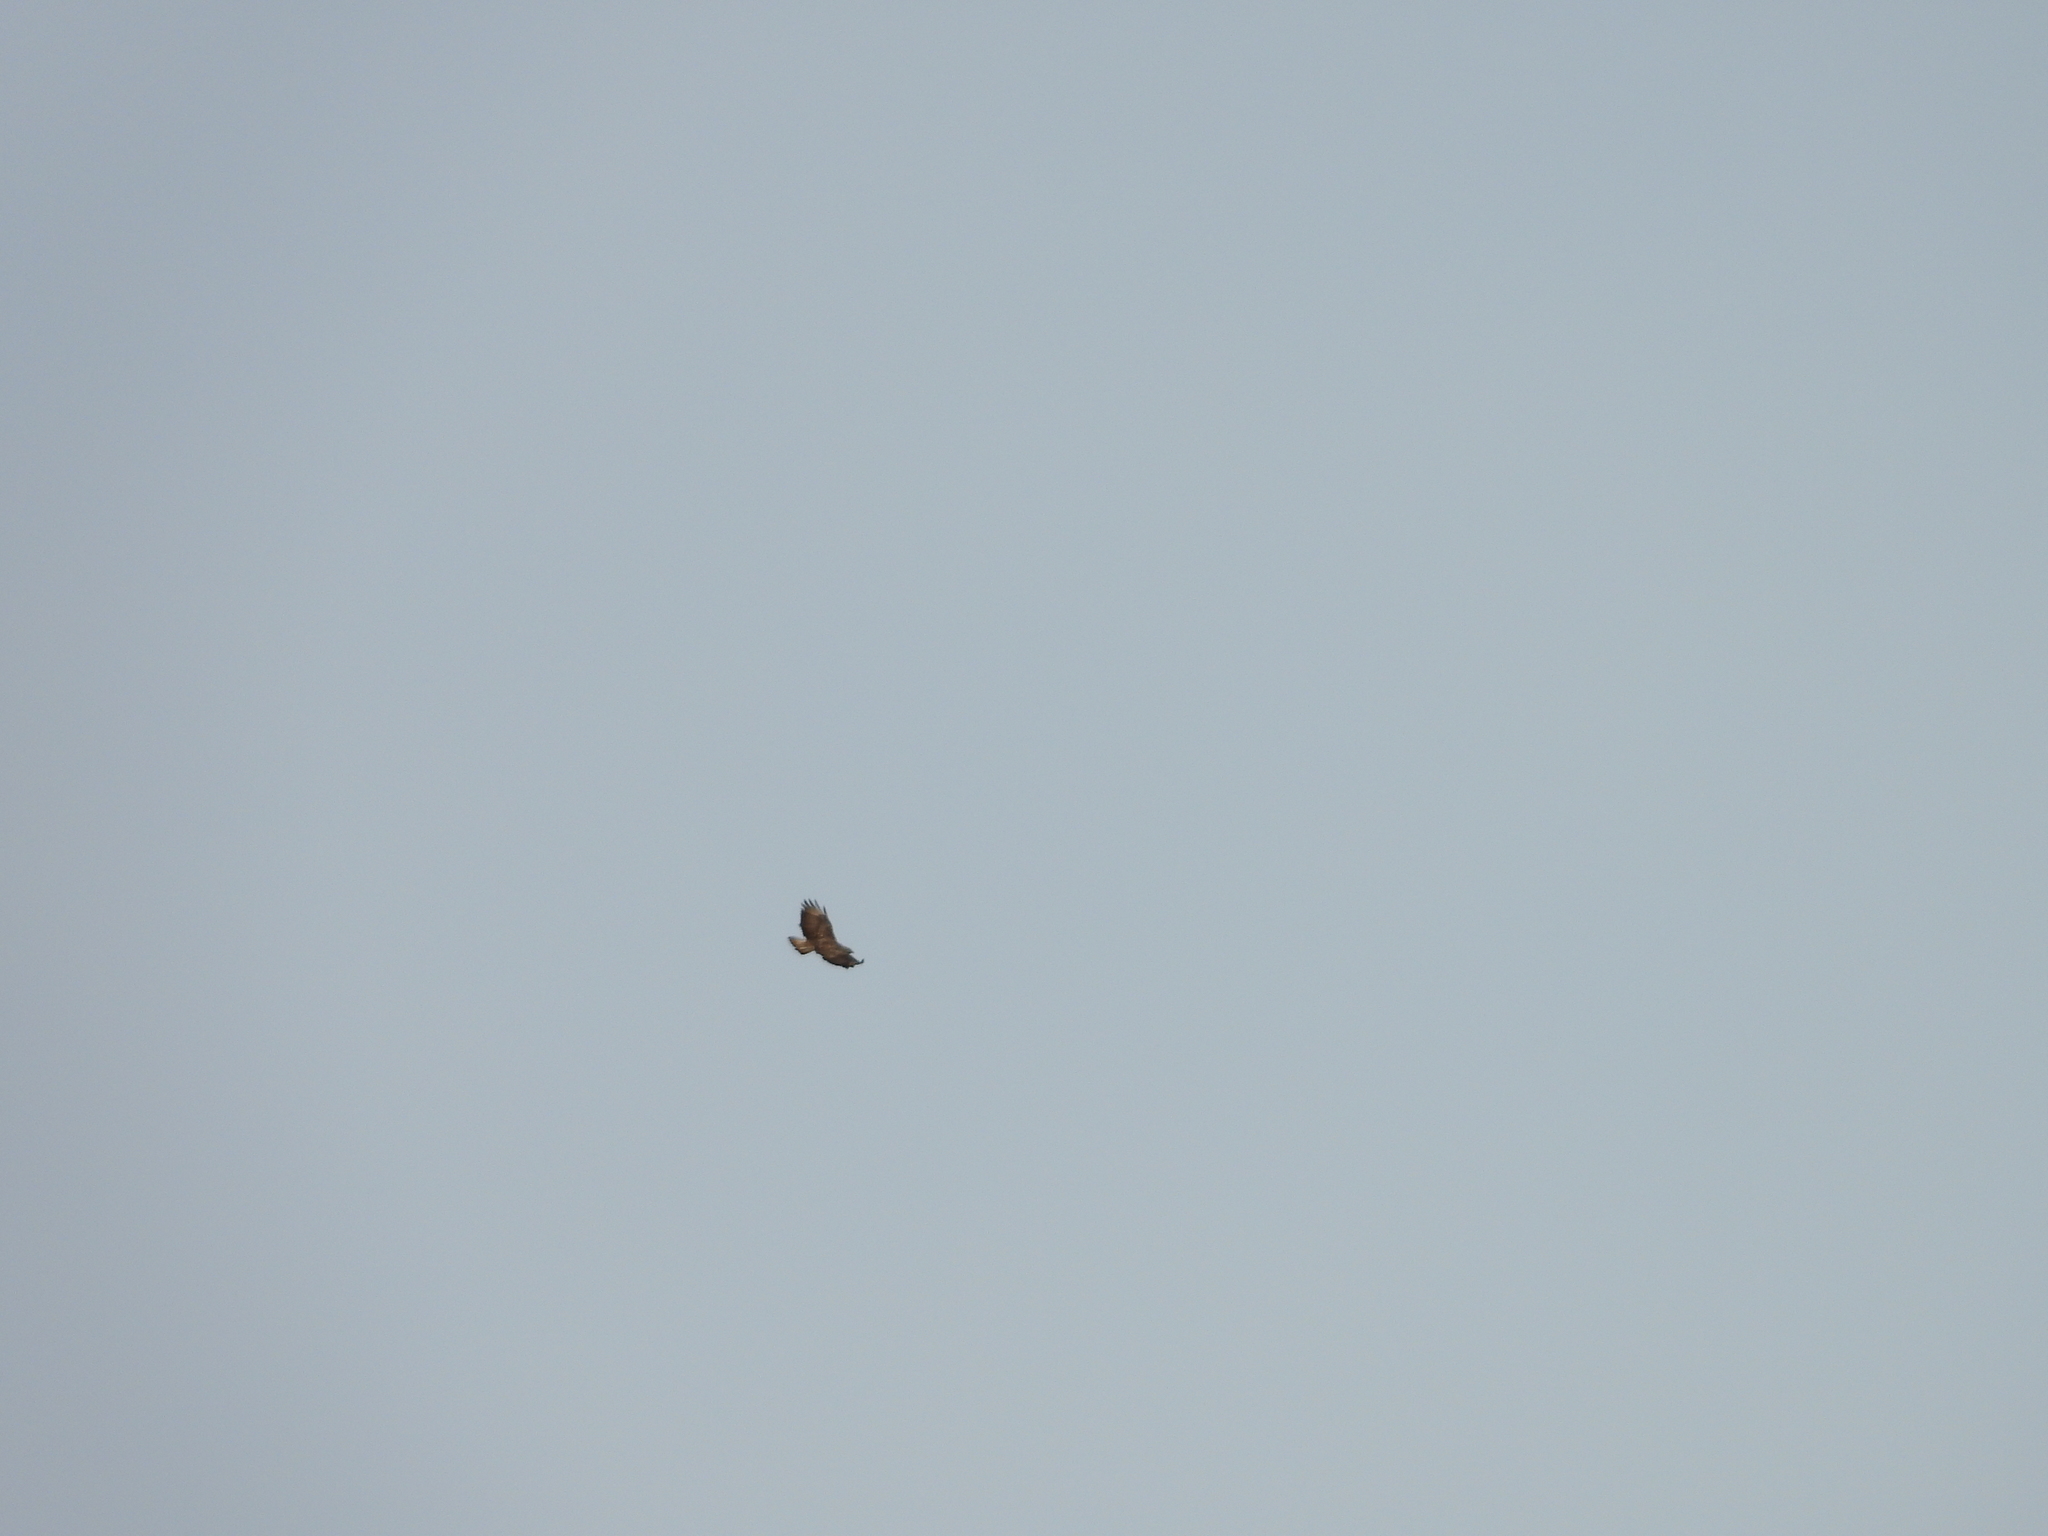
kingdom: Animalia
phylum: Chordata
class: Aves
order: Accipitriformes
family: Accipitridae
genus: Buteo
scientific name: Buteo buteo
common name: Common buzzard
